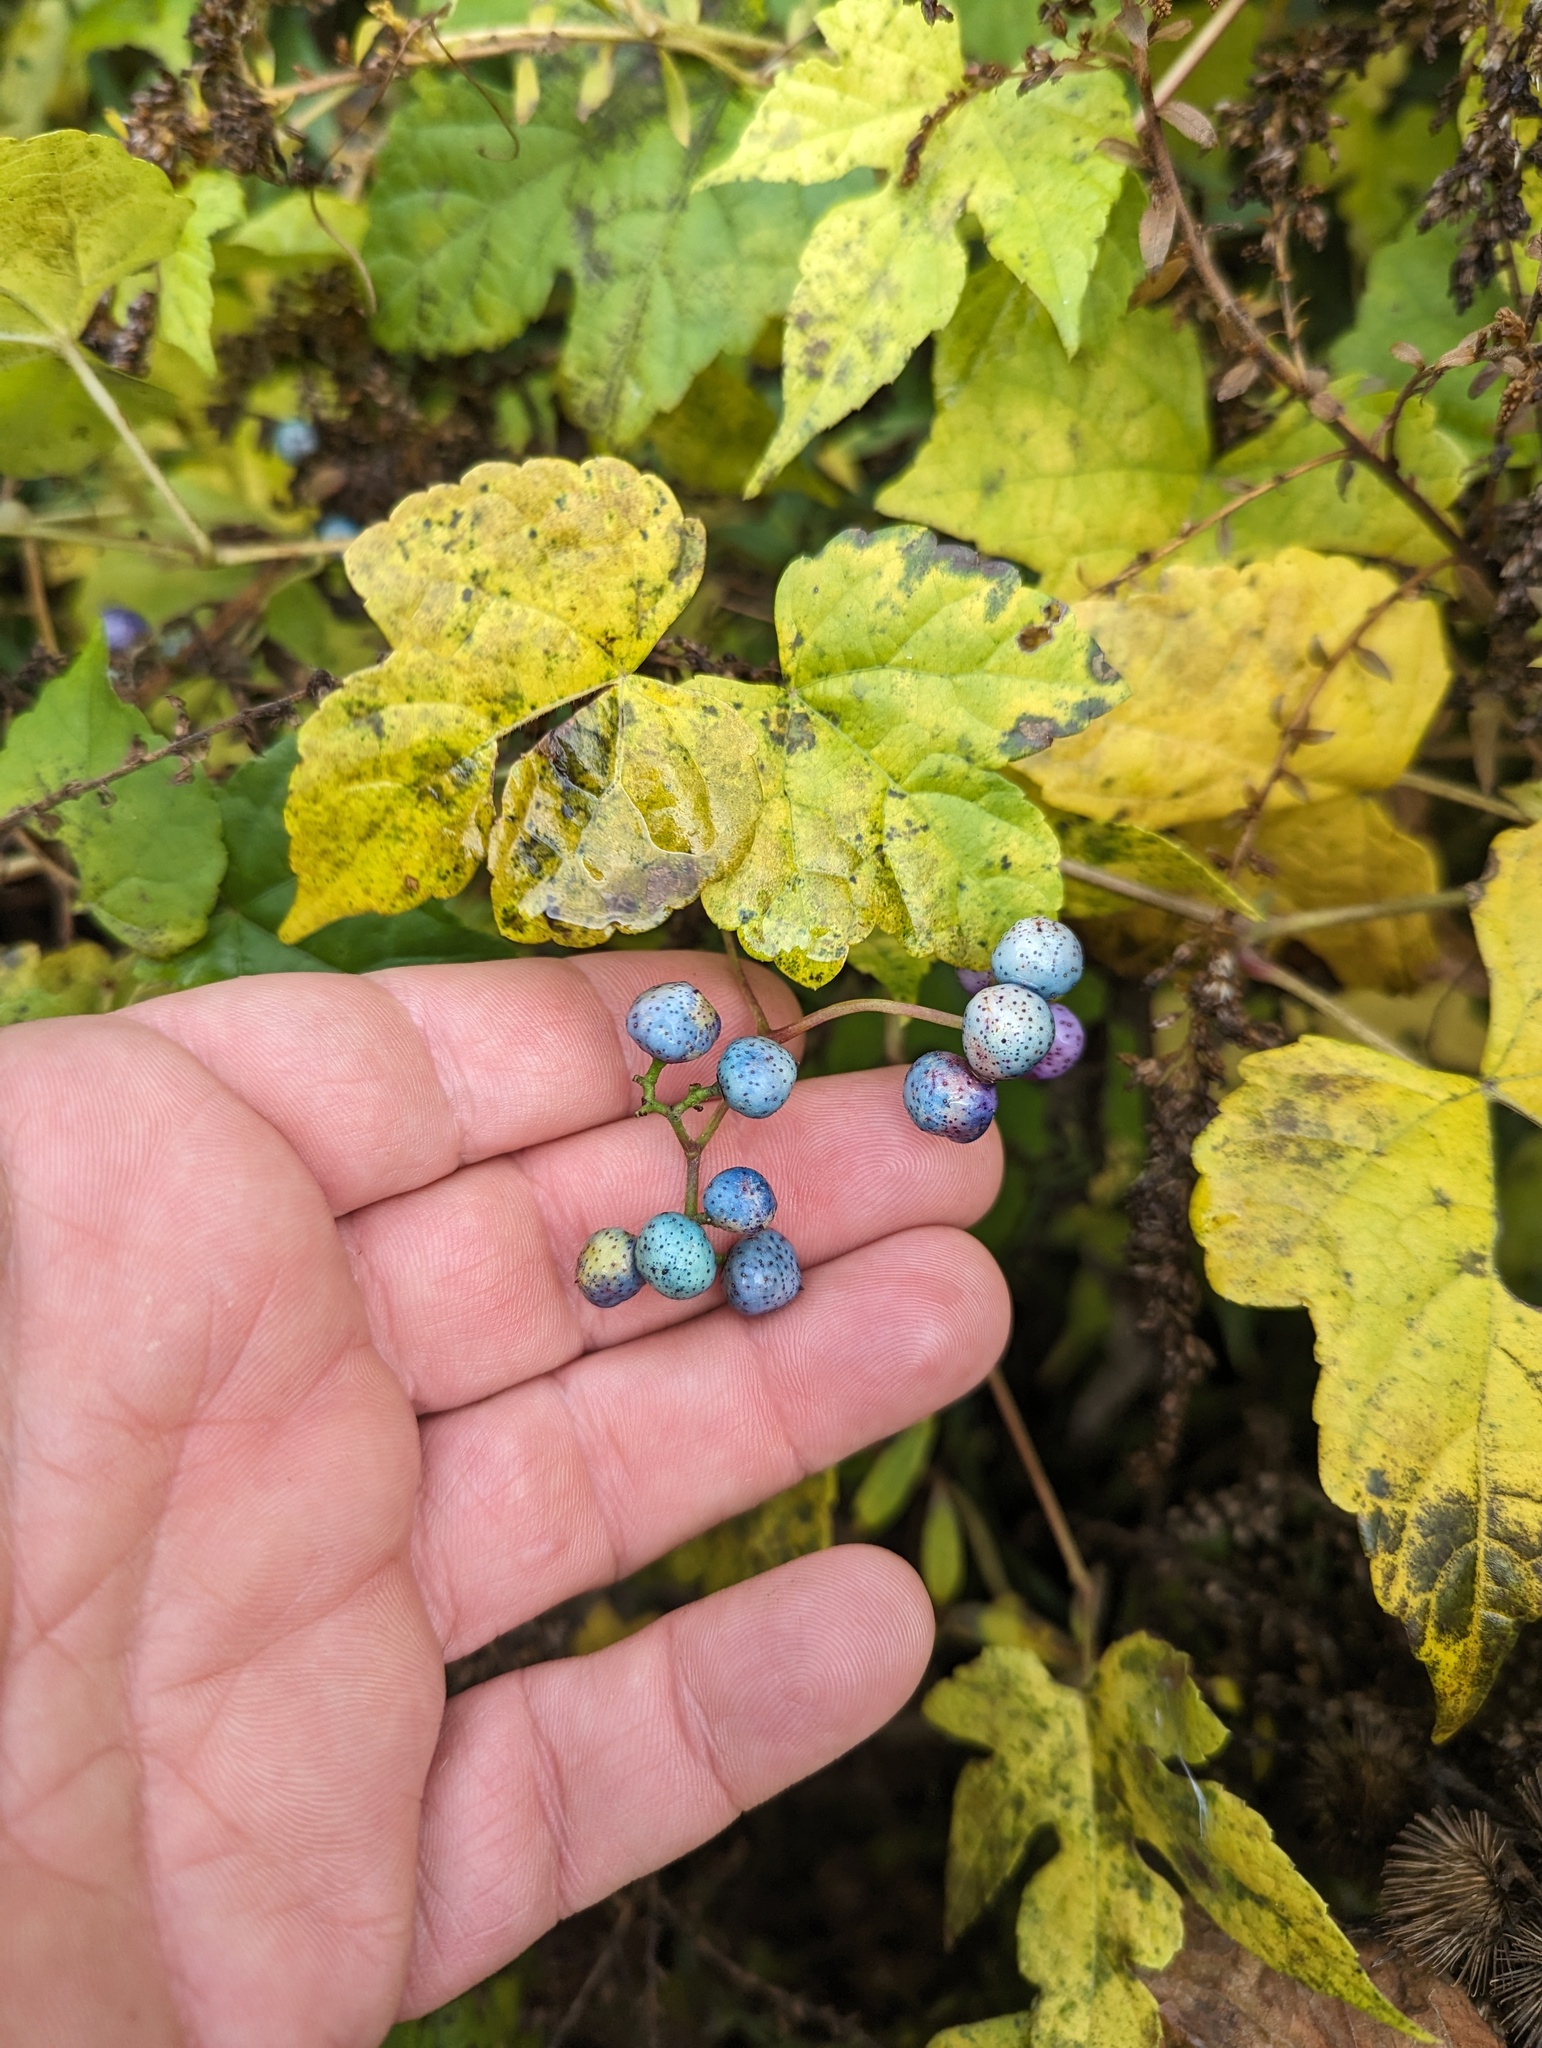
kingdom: Plantae
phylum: Tracheophyta
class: Magnoliopsida
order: Vitales
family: Vitaceae
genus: Ampelopsis
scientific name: Ampelopsis glandulosa
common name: Amur peppervine
